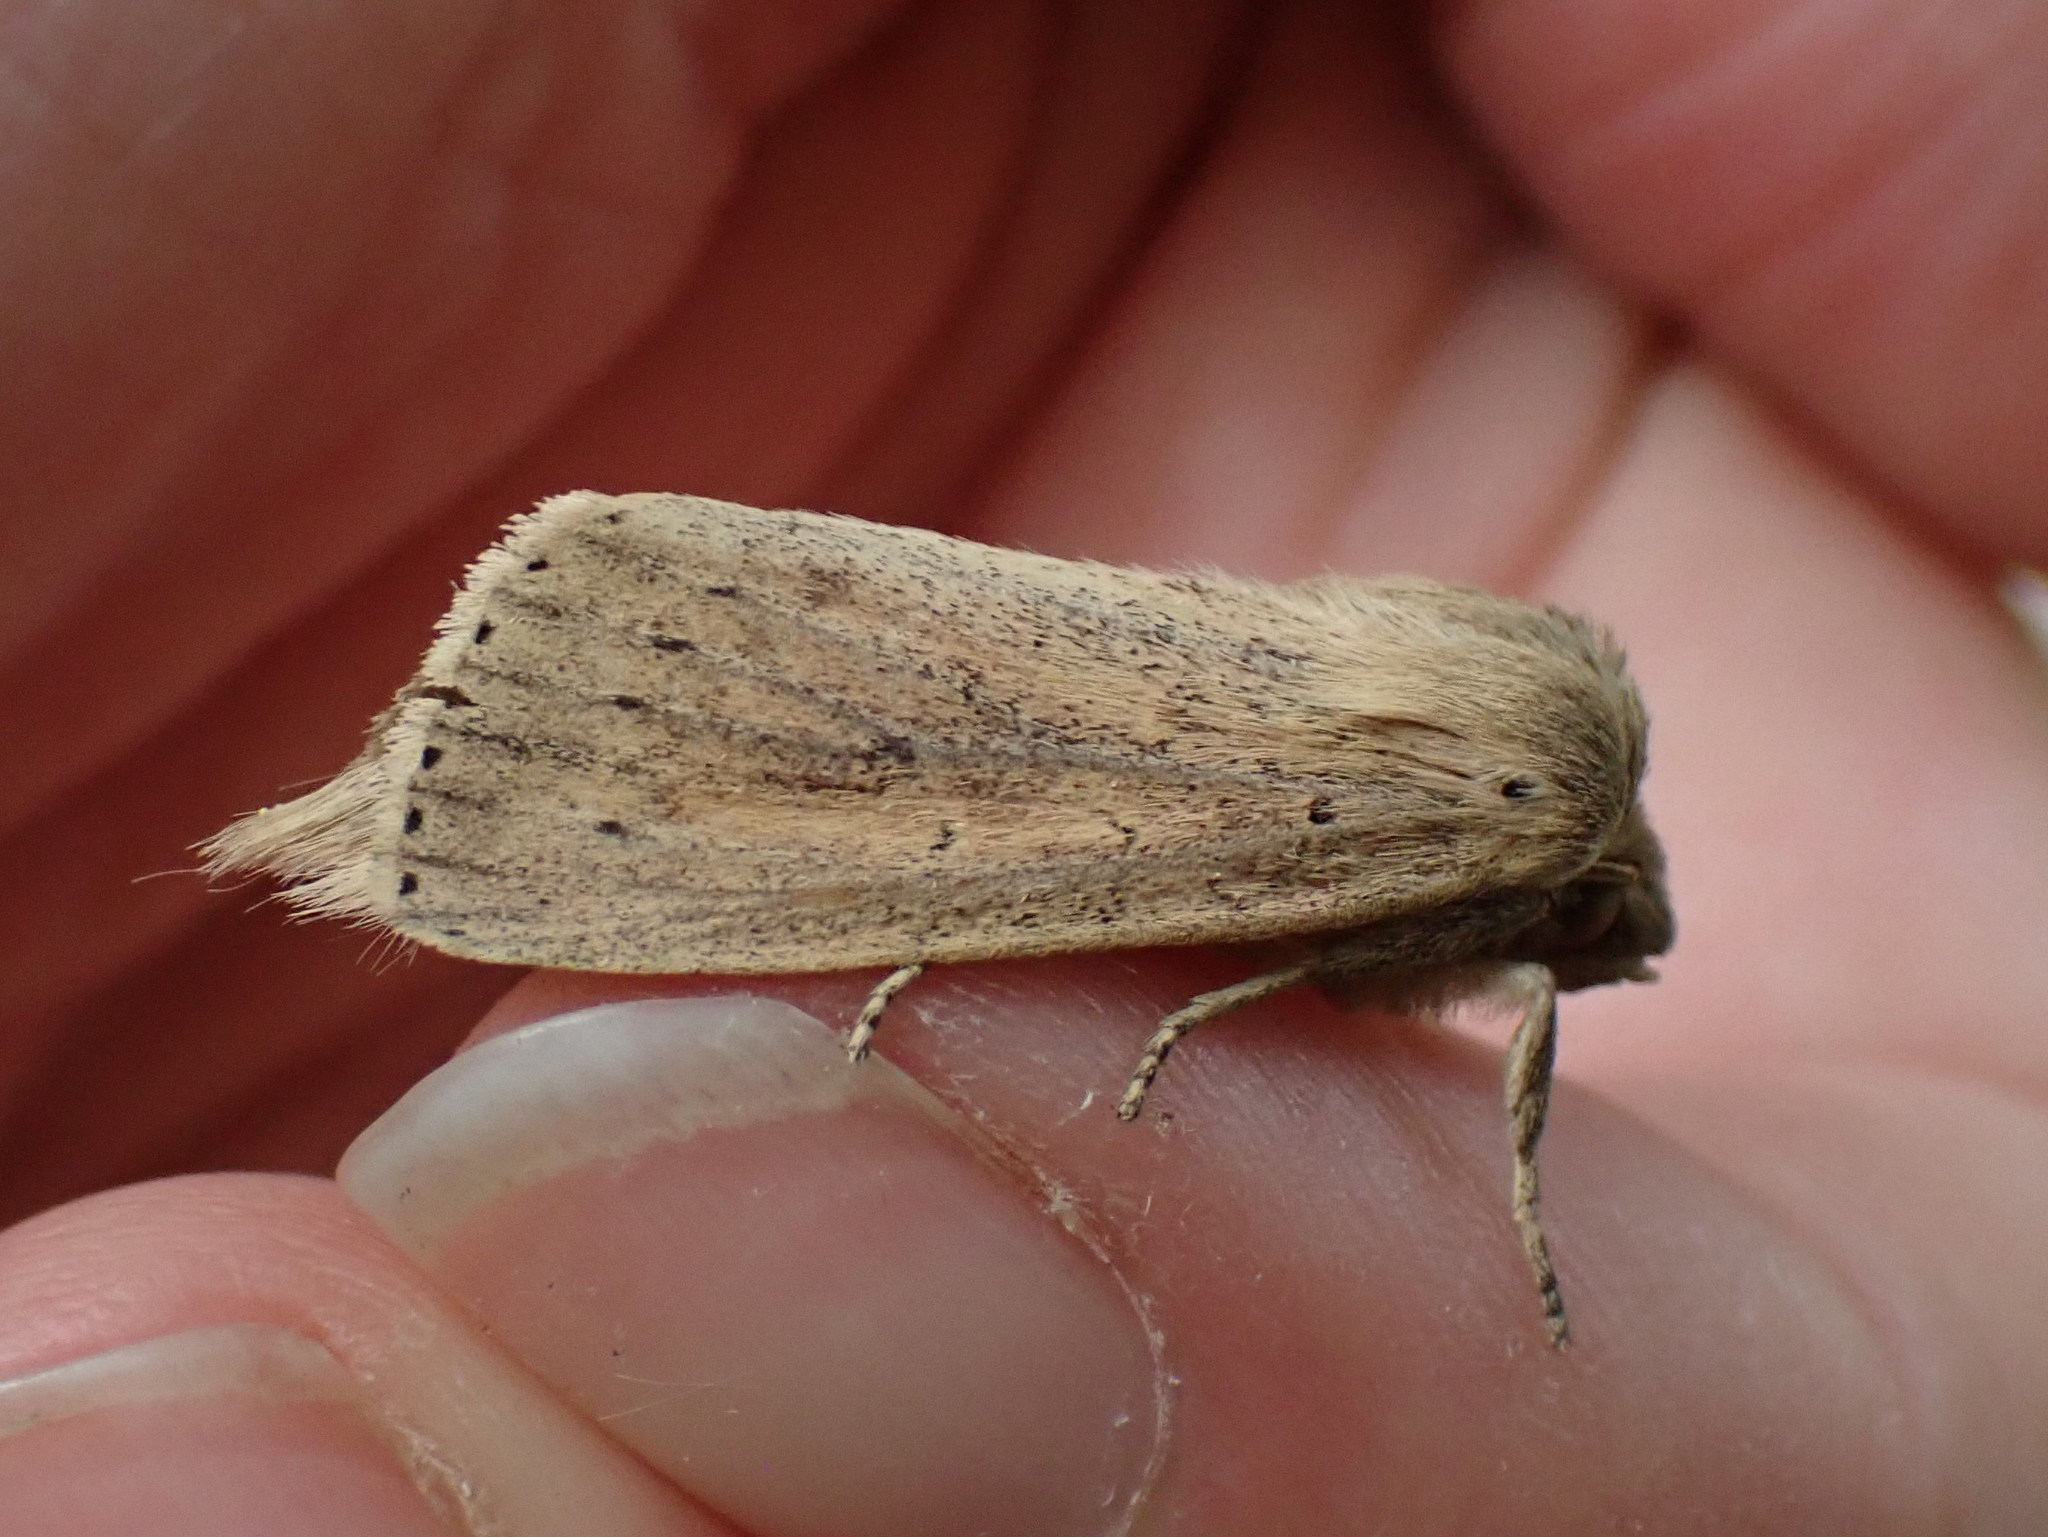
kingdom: Animalia
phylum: Arthropoda
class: Insecta
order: Lepidoptera
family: Noctuidae
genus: Globia
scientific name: Globia oblonga
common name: Oblong sedge borer moth
